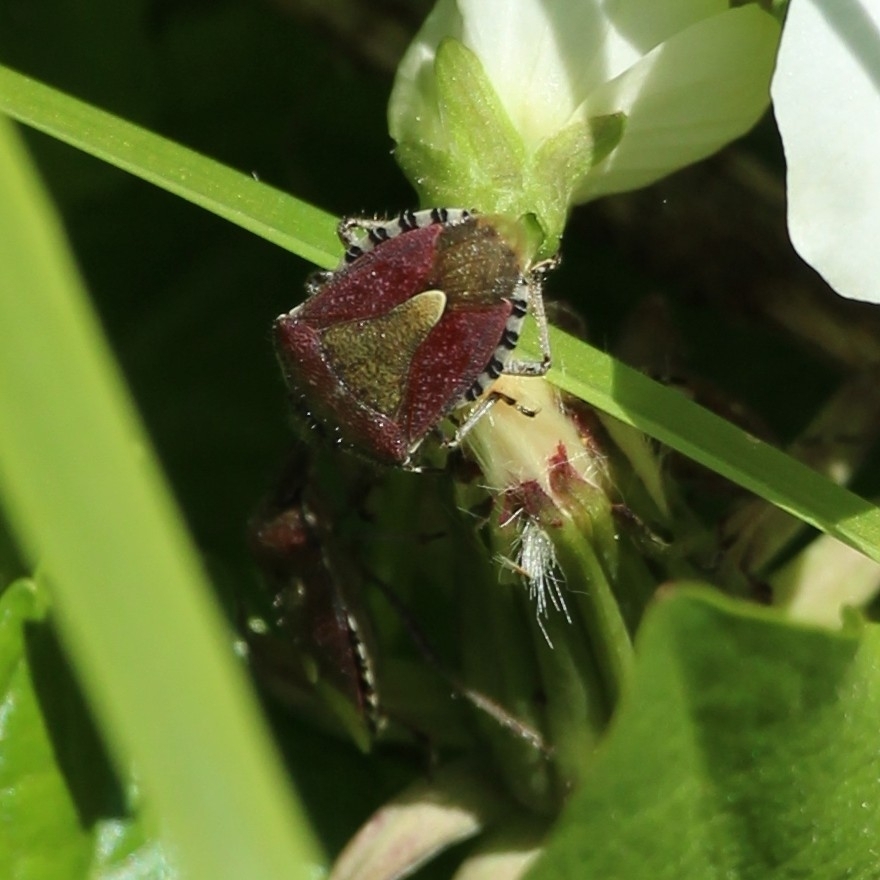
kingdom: Animalia
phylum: Arthropoda
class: Insecta
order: Hemiptera
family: Pentatomidae
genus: Dolycoris
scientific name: Dolycoris baccarum
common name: Sloe bug
